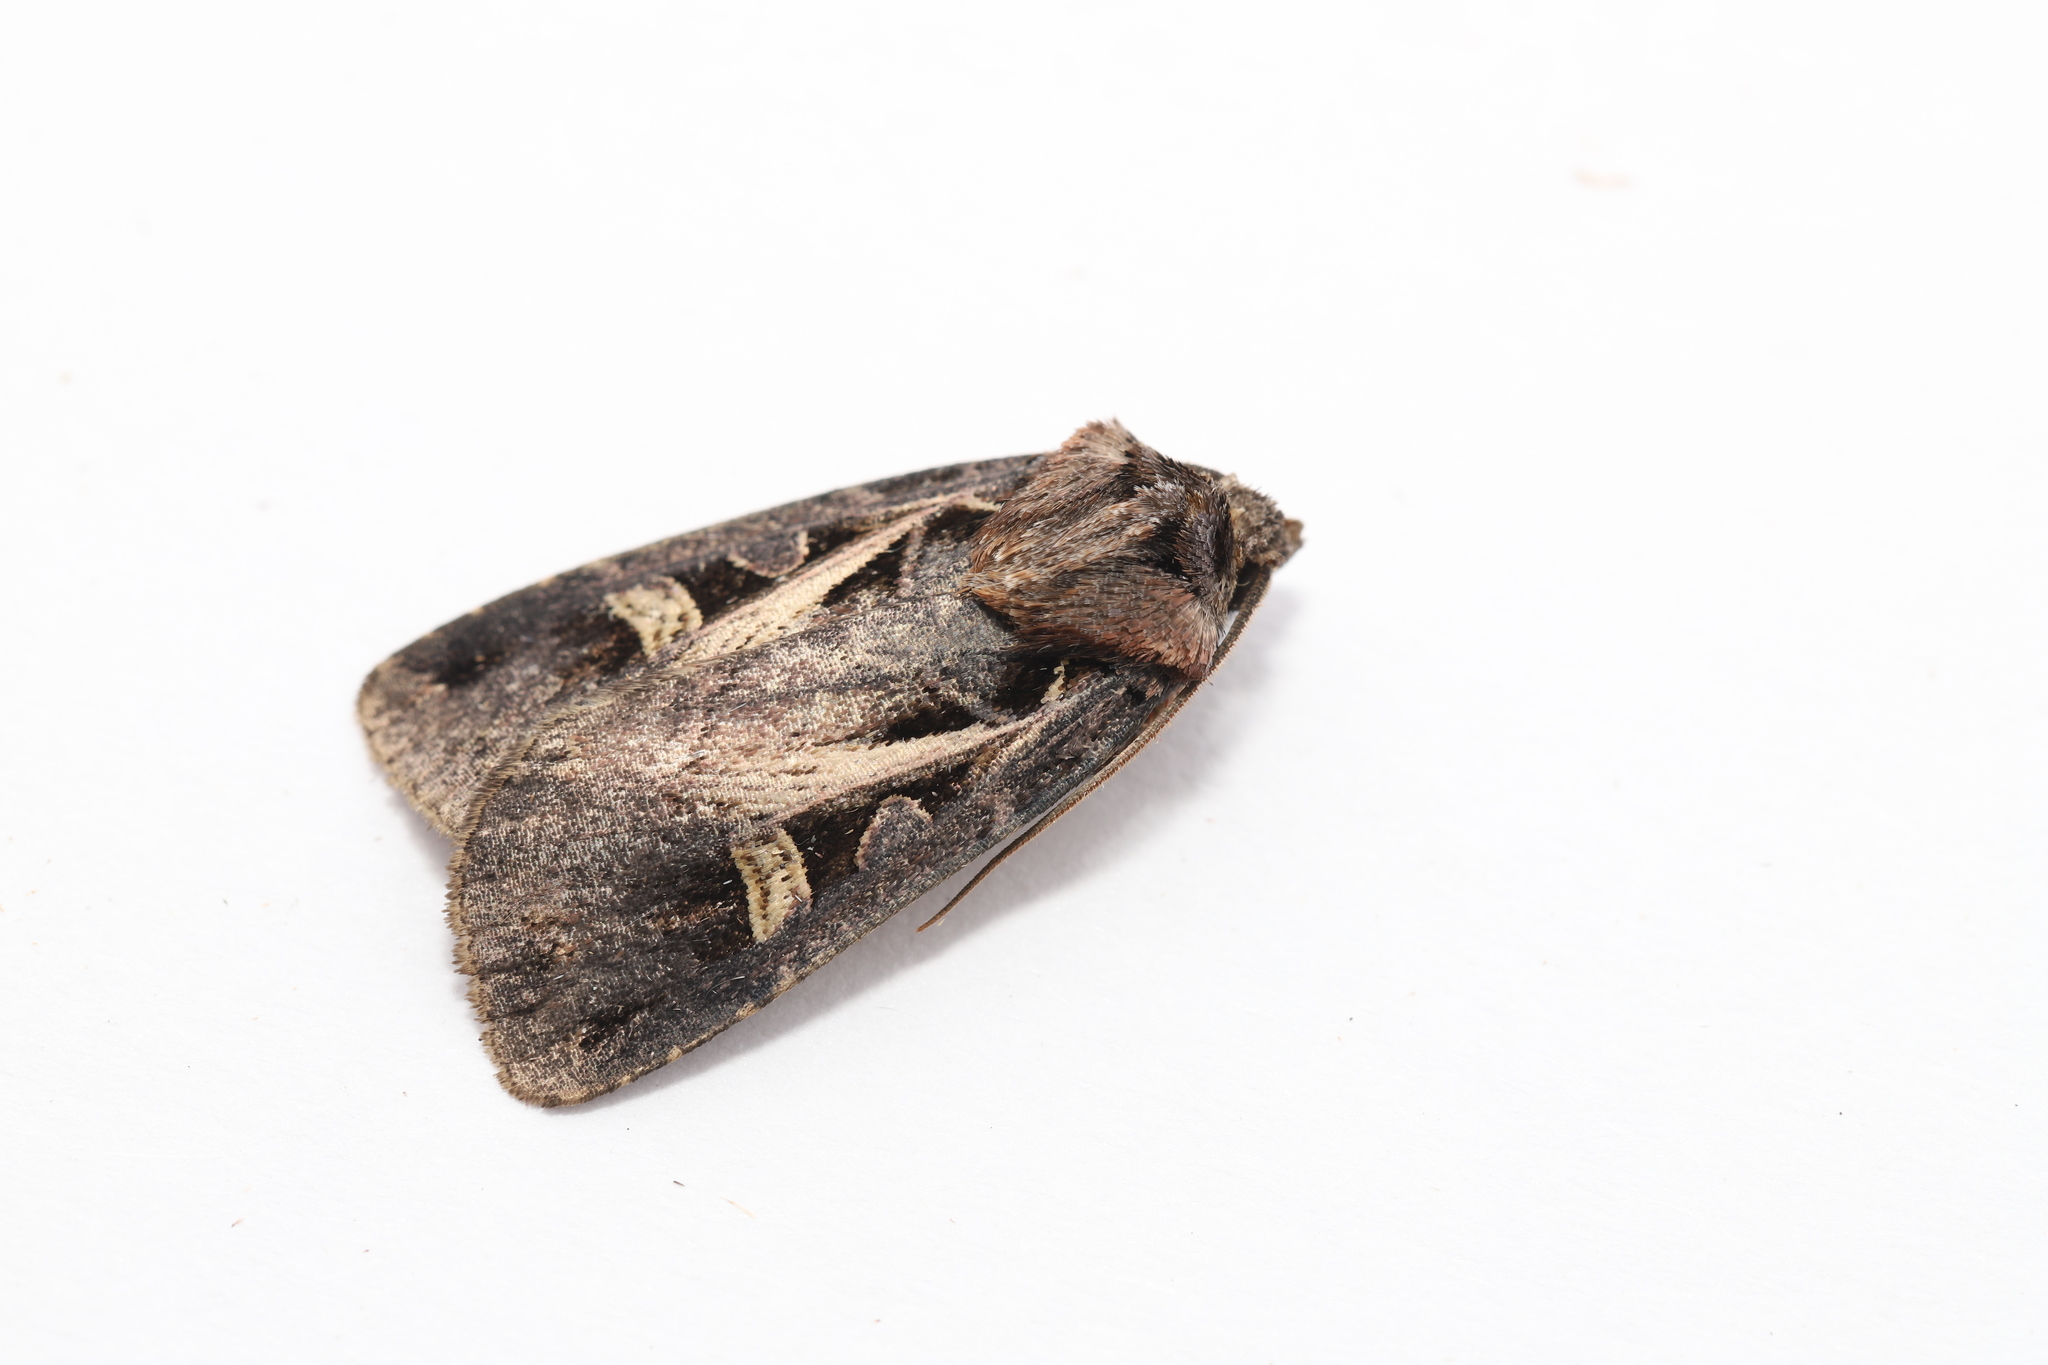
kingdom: Animalia
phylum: Arthropoda
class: Insecta
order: Lepidoptera
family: Noctuidae
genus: Feltia
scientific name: Feltia herilis
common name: Master's dart
